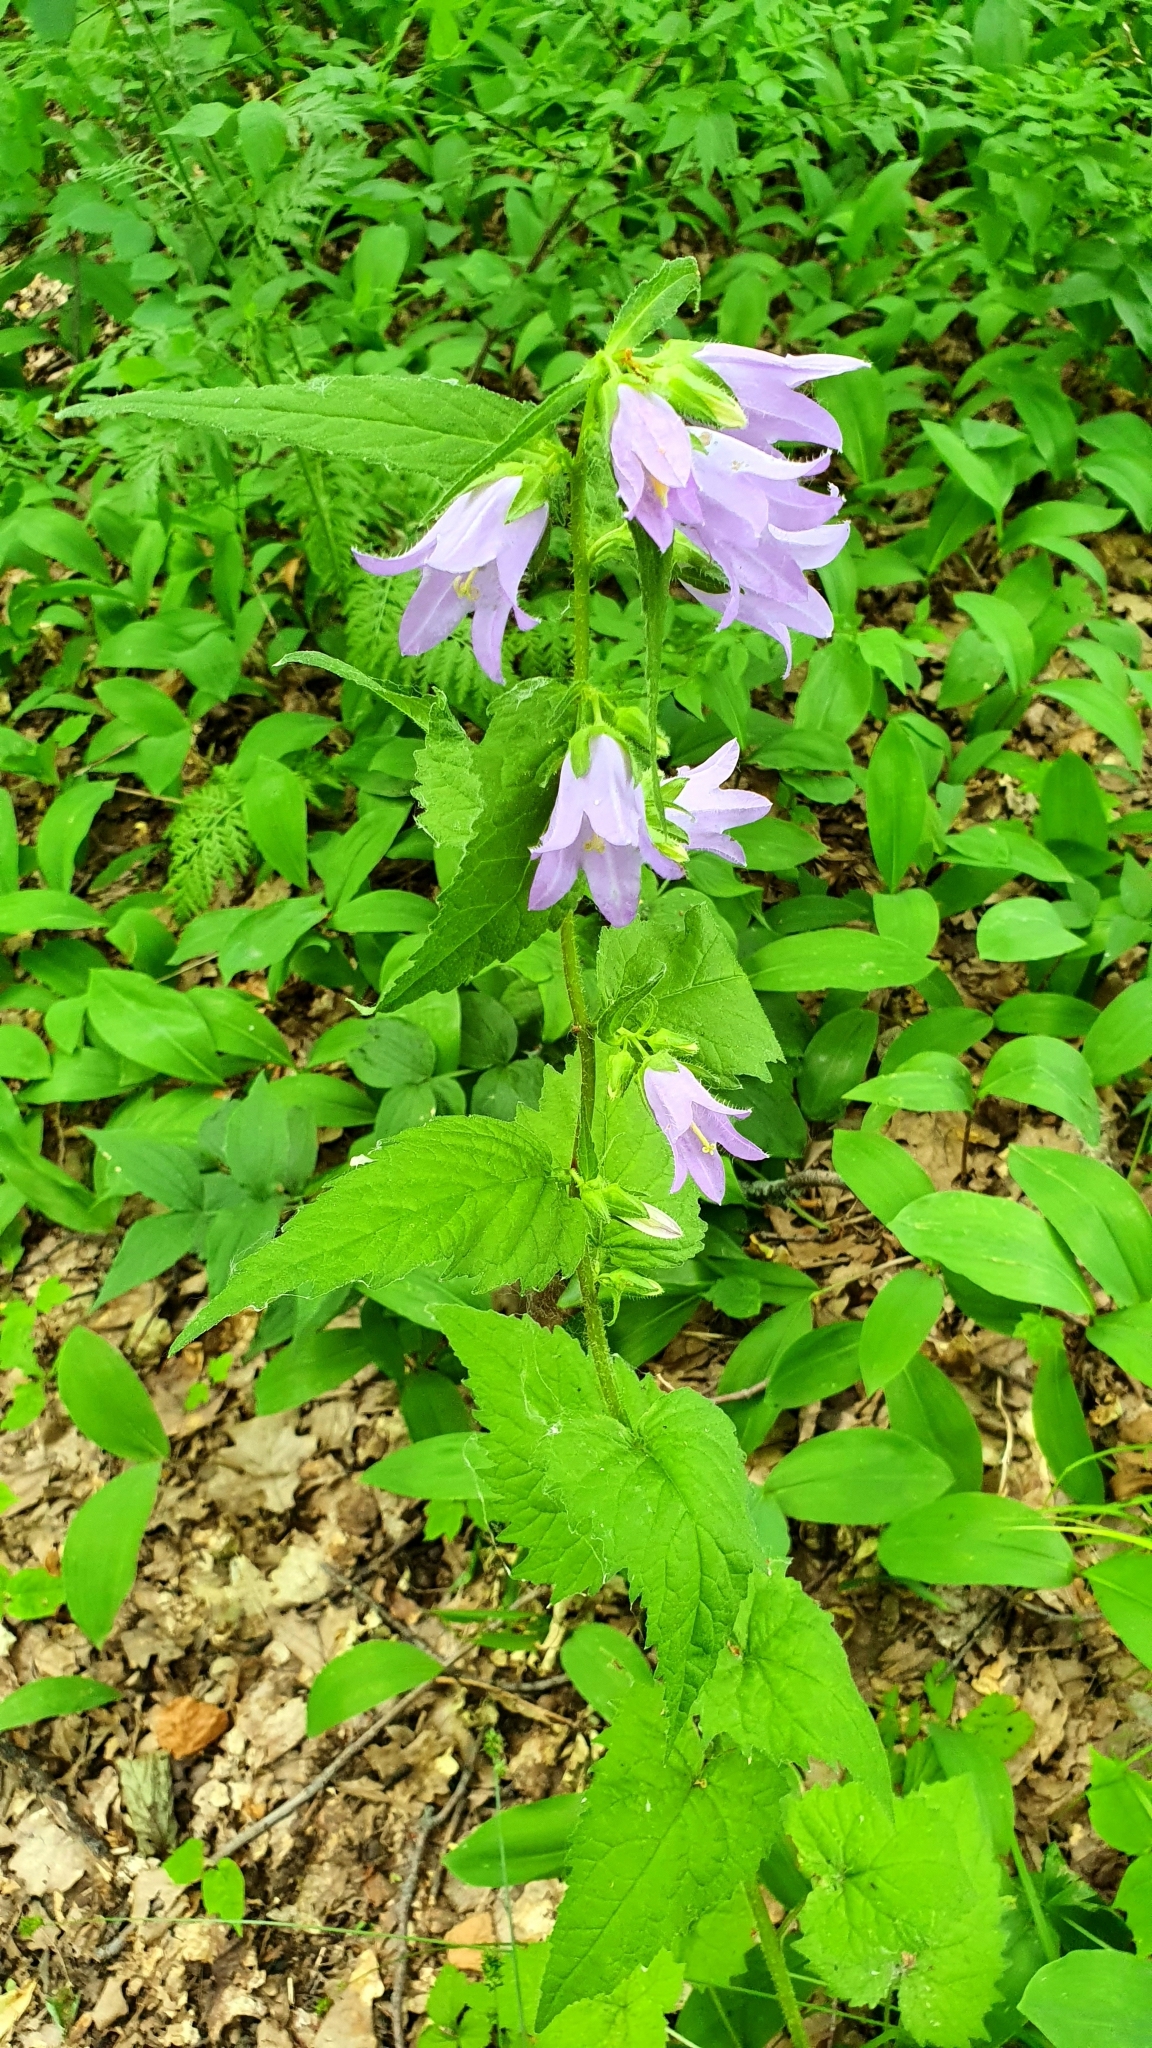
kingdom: Plantae
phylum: Tracheophyta
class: Magnoliopsida
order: Asterales
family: Campanulaceae
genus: Campanula
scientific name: Campanula trachelium
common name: Nettle-leaved bellflower
